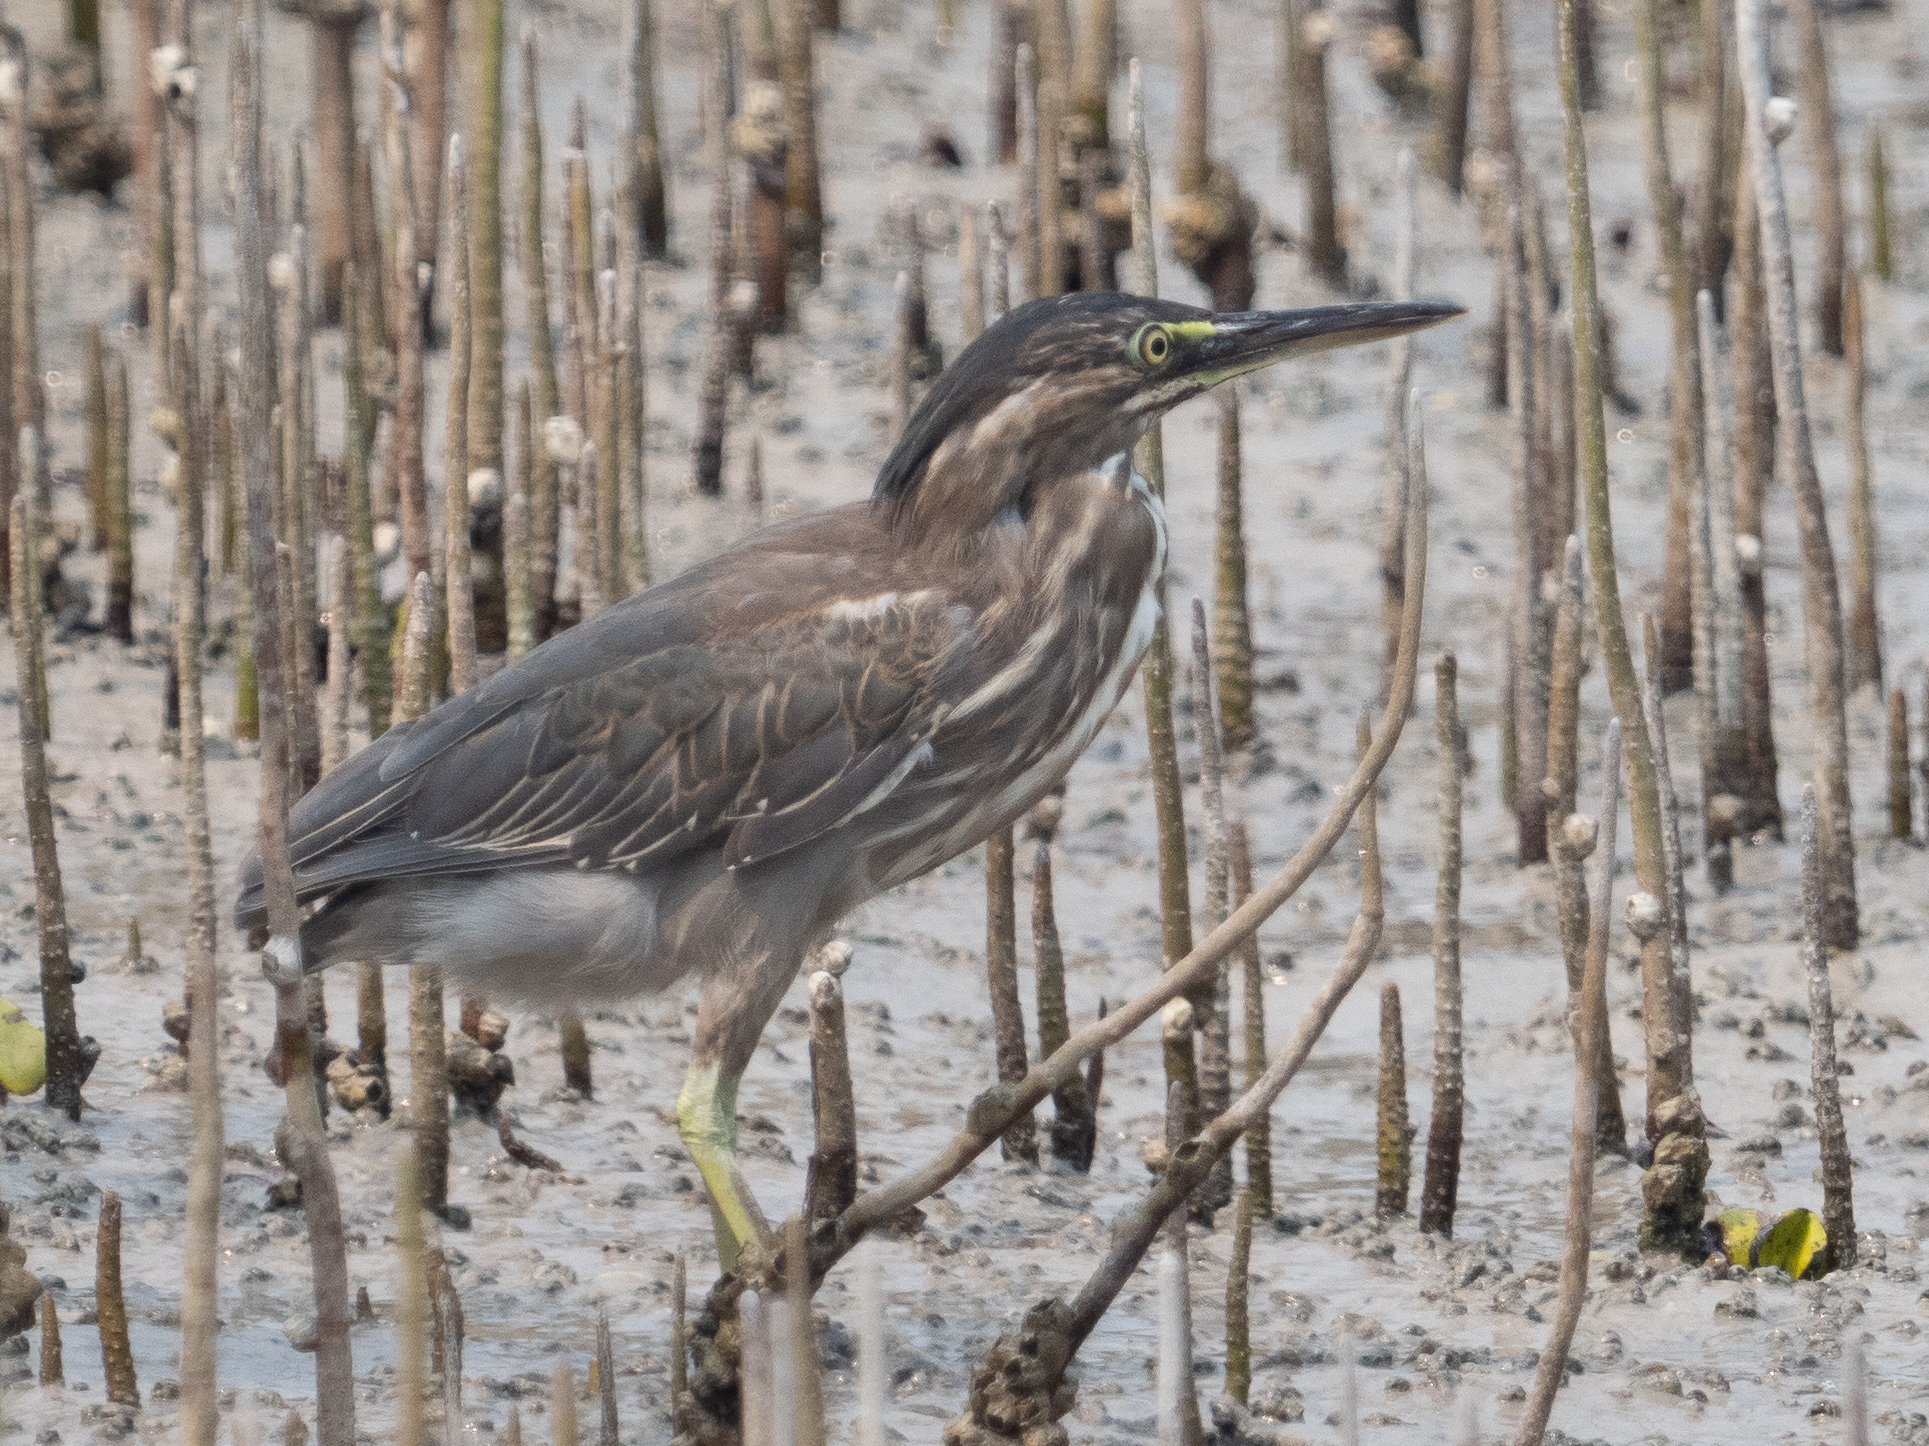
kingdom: Animalia
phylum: Chordata
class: Aves
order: Pelecaniformes
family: Ardeidae
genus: Butorides
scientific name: Butorides striata
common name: Striated heron
